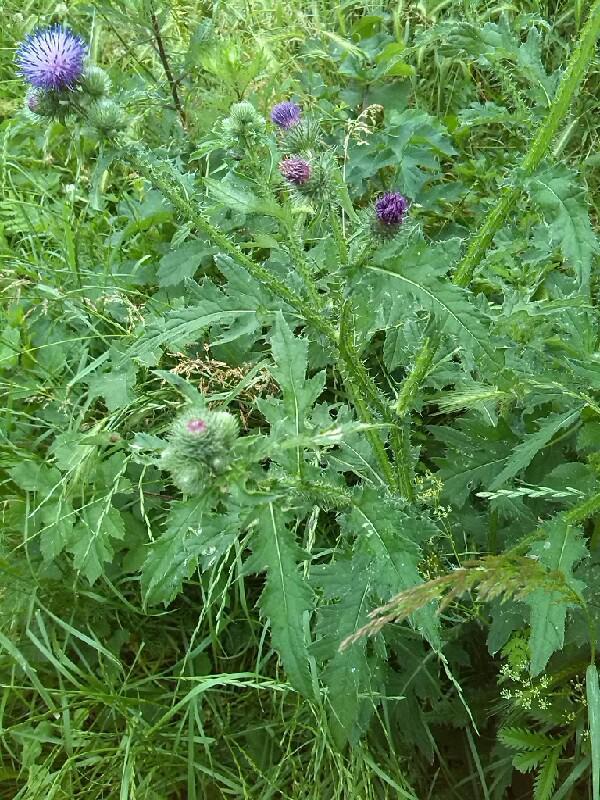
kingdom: Plantae
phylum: Tracheophyta
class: Magnoliopsida
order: Asterales
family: Asteraceae
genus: Carduus
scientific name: Carduus crispus
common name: Welted thistle
